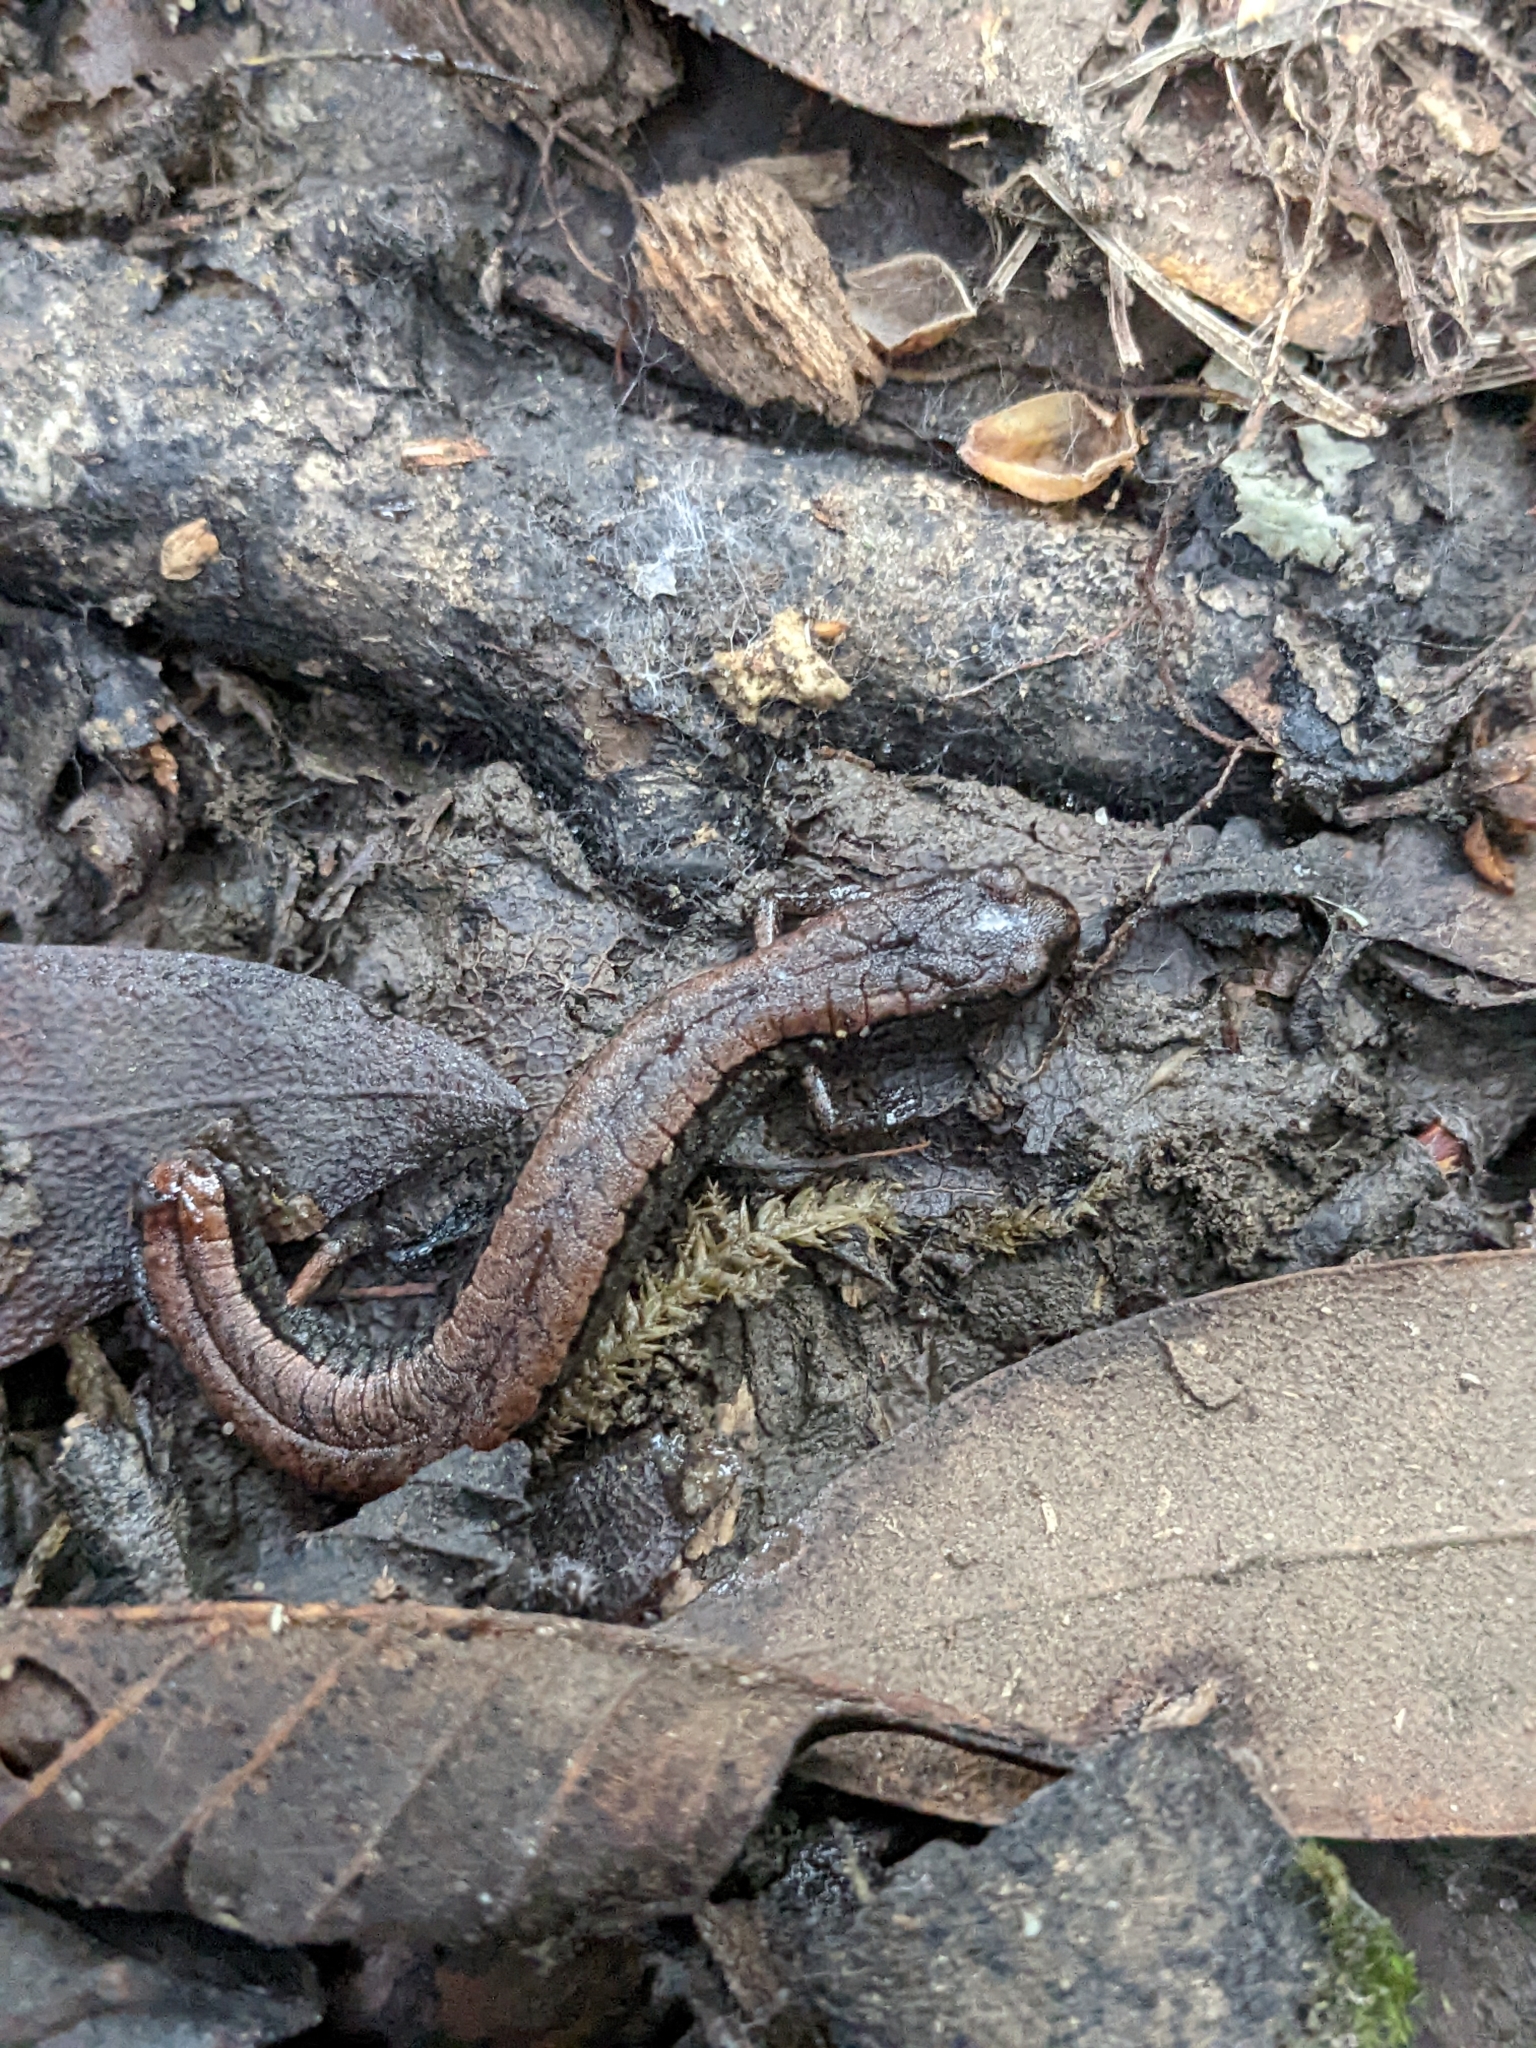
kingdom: Animalia
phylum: Chordata
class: Amphibia
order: Caudata
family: Plethodontidae
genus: Batrachoseps
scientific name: Batrachoseps attenuatus
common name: California slender salamander
